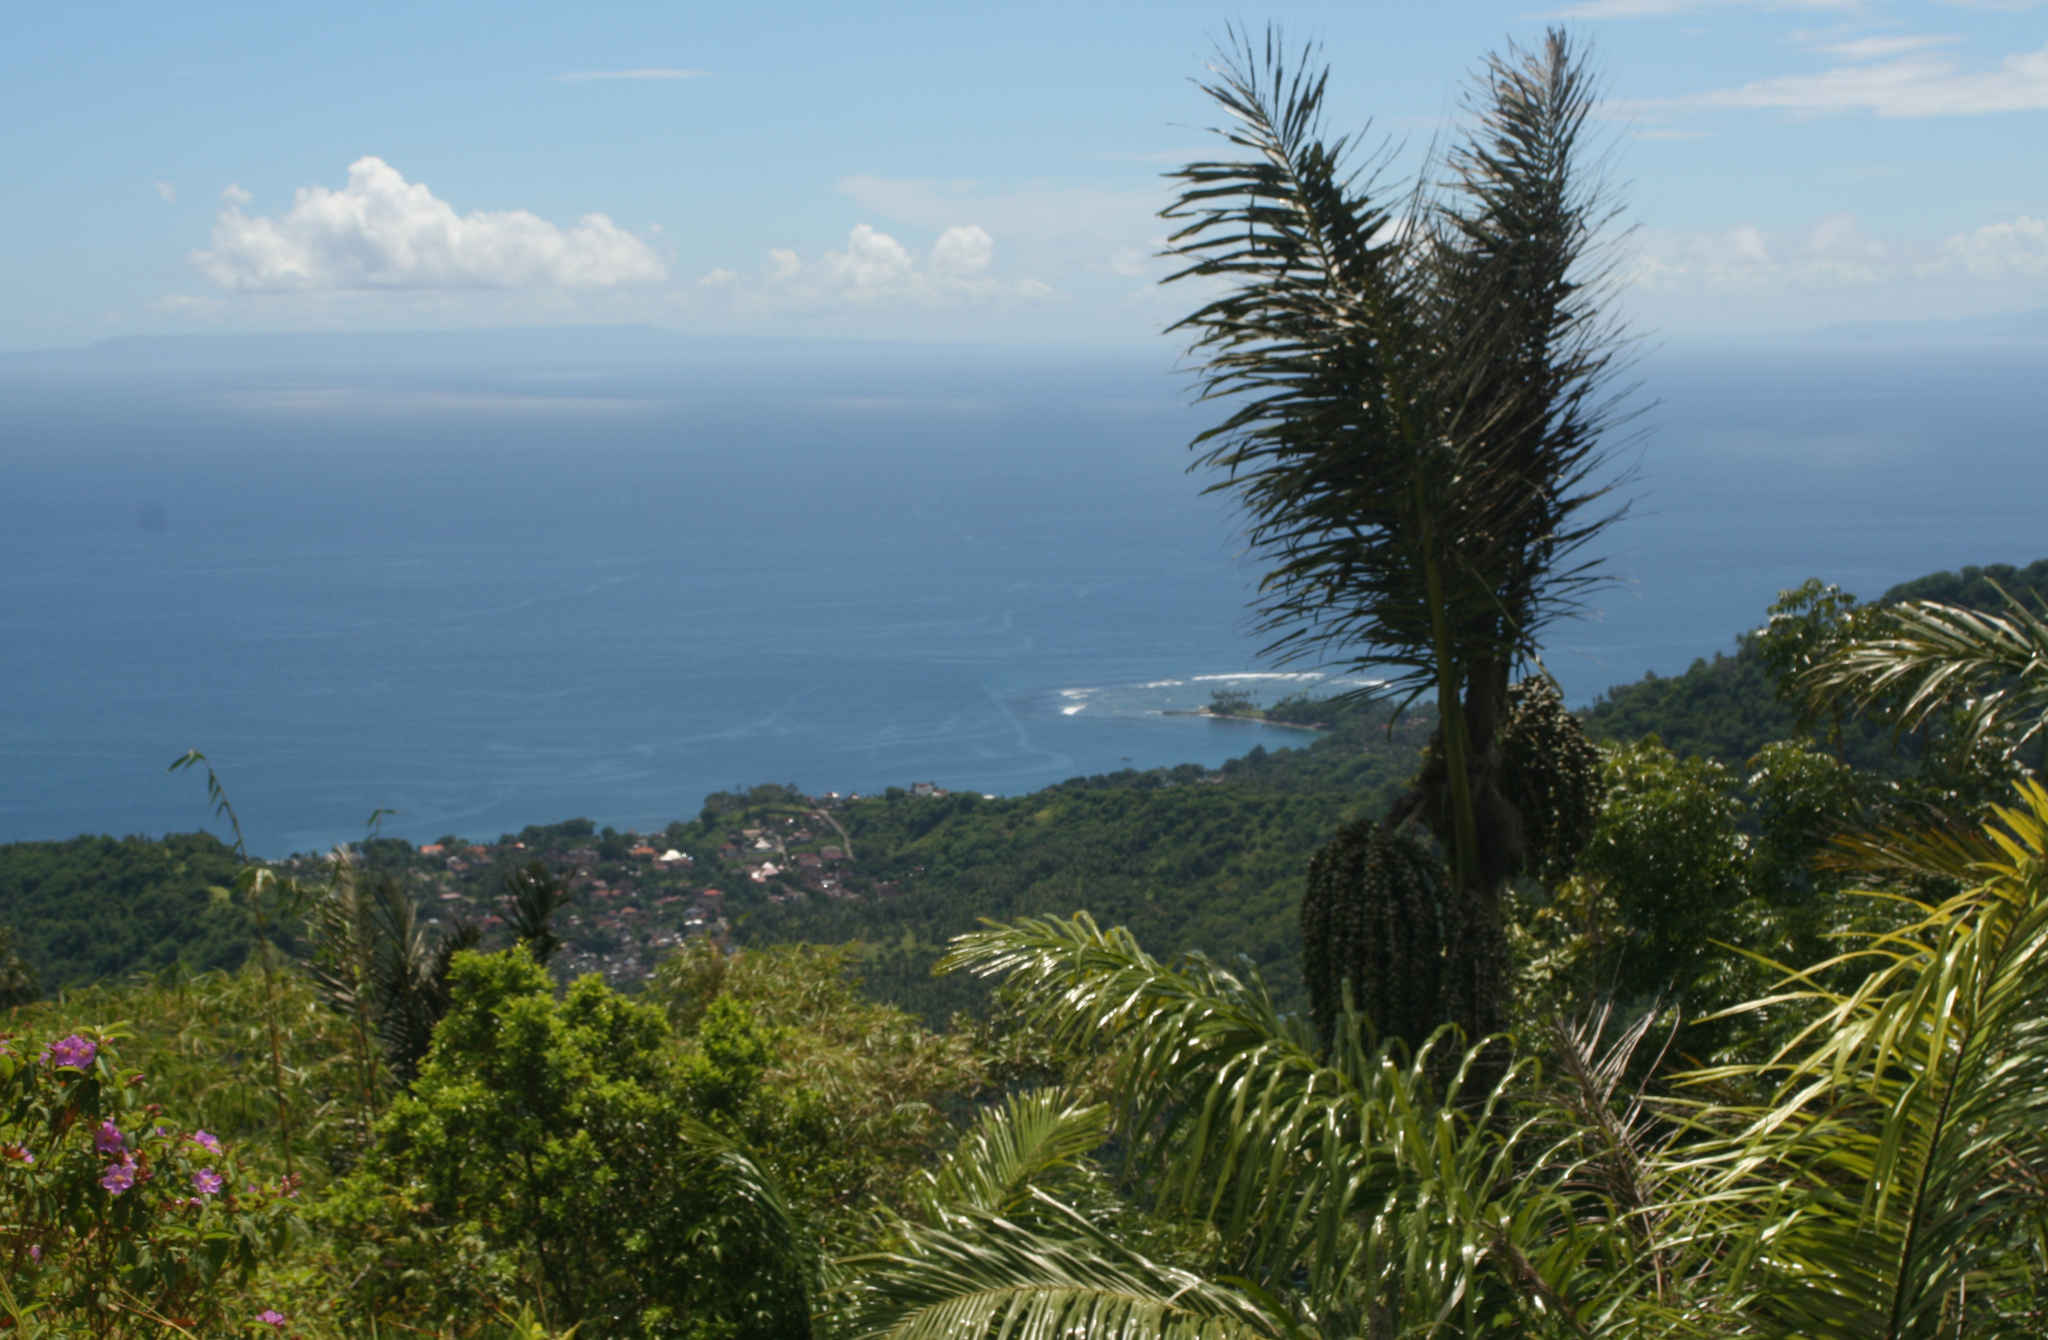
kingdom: Plantae
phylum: Tracheophyta
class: Liliopsida
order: Arecales
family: Arecaceae
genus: Arenga
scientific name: Arenga pinnata
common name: Black-fiber palm
